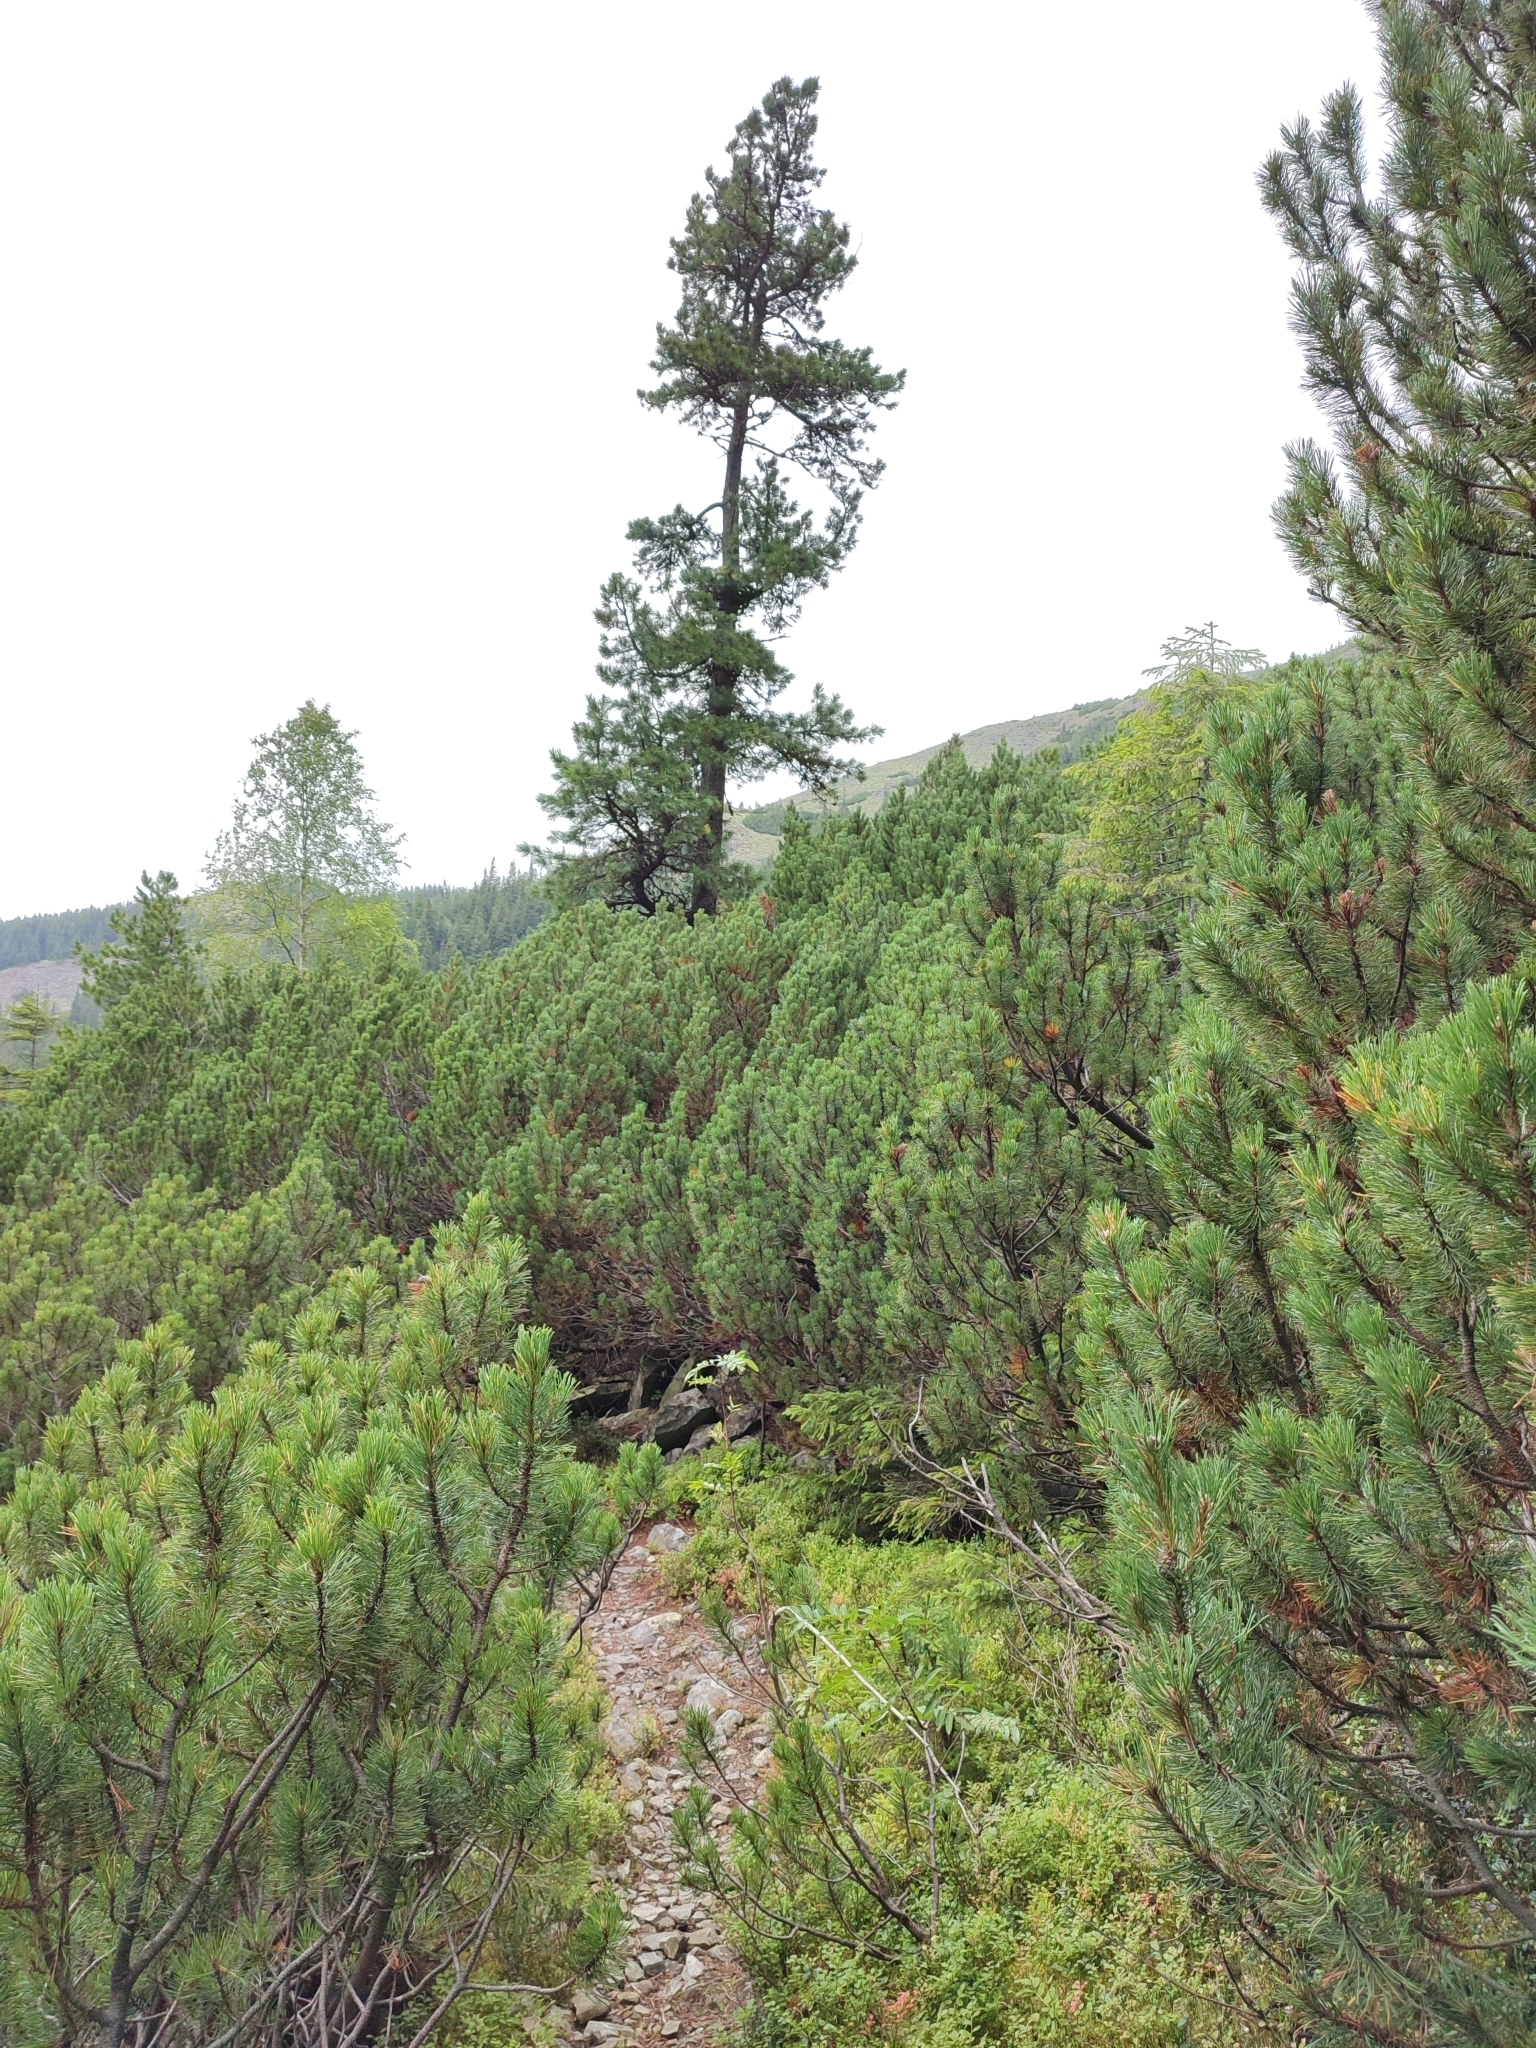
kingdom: Plantae
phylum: Tracheophyta
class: Pinopsida
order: Pinales
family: Pinaceae
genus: Pinus
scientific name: Pinus cembra
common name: Arolla pine
